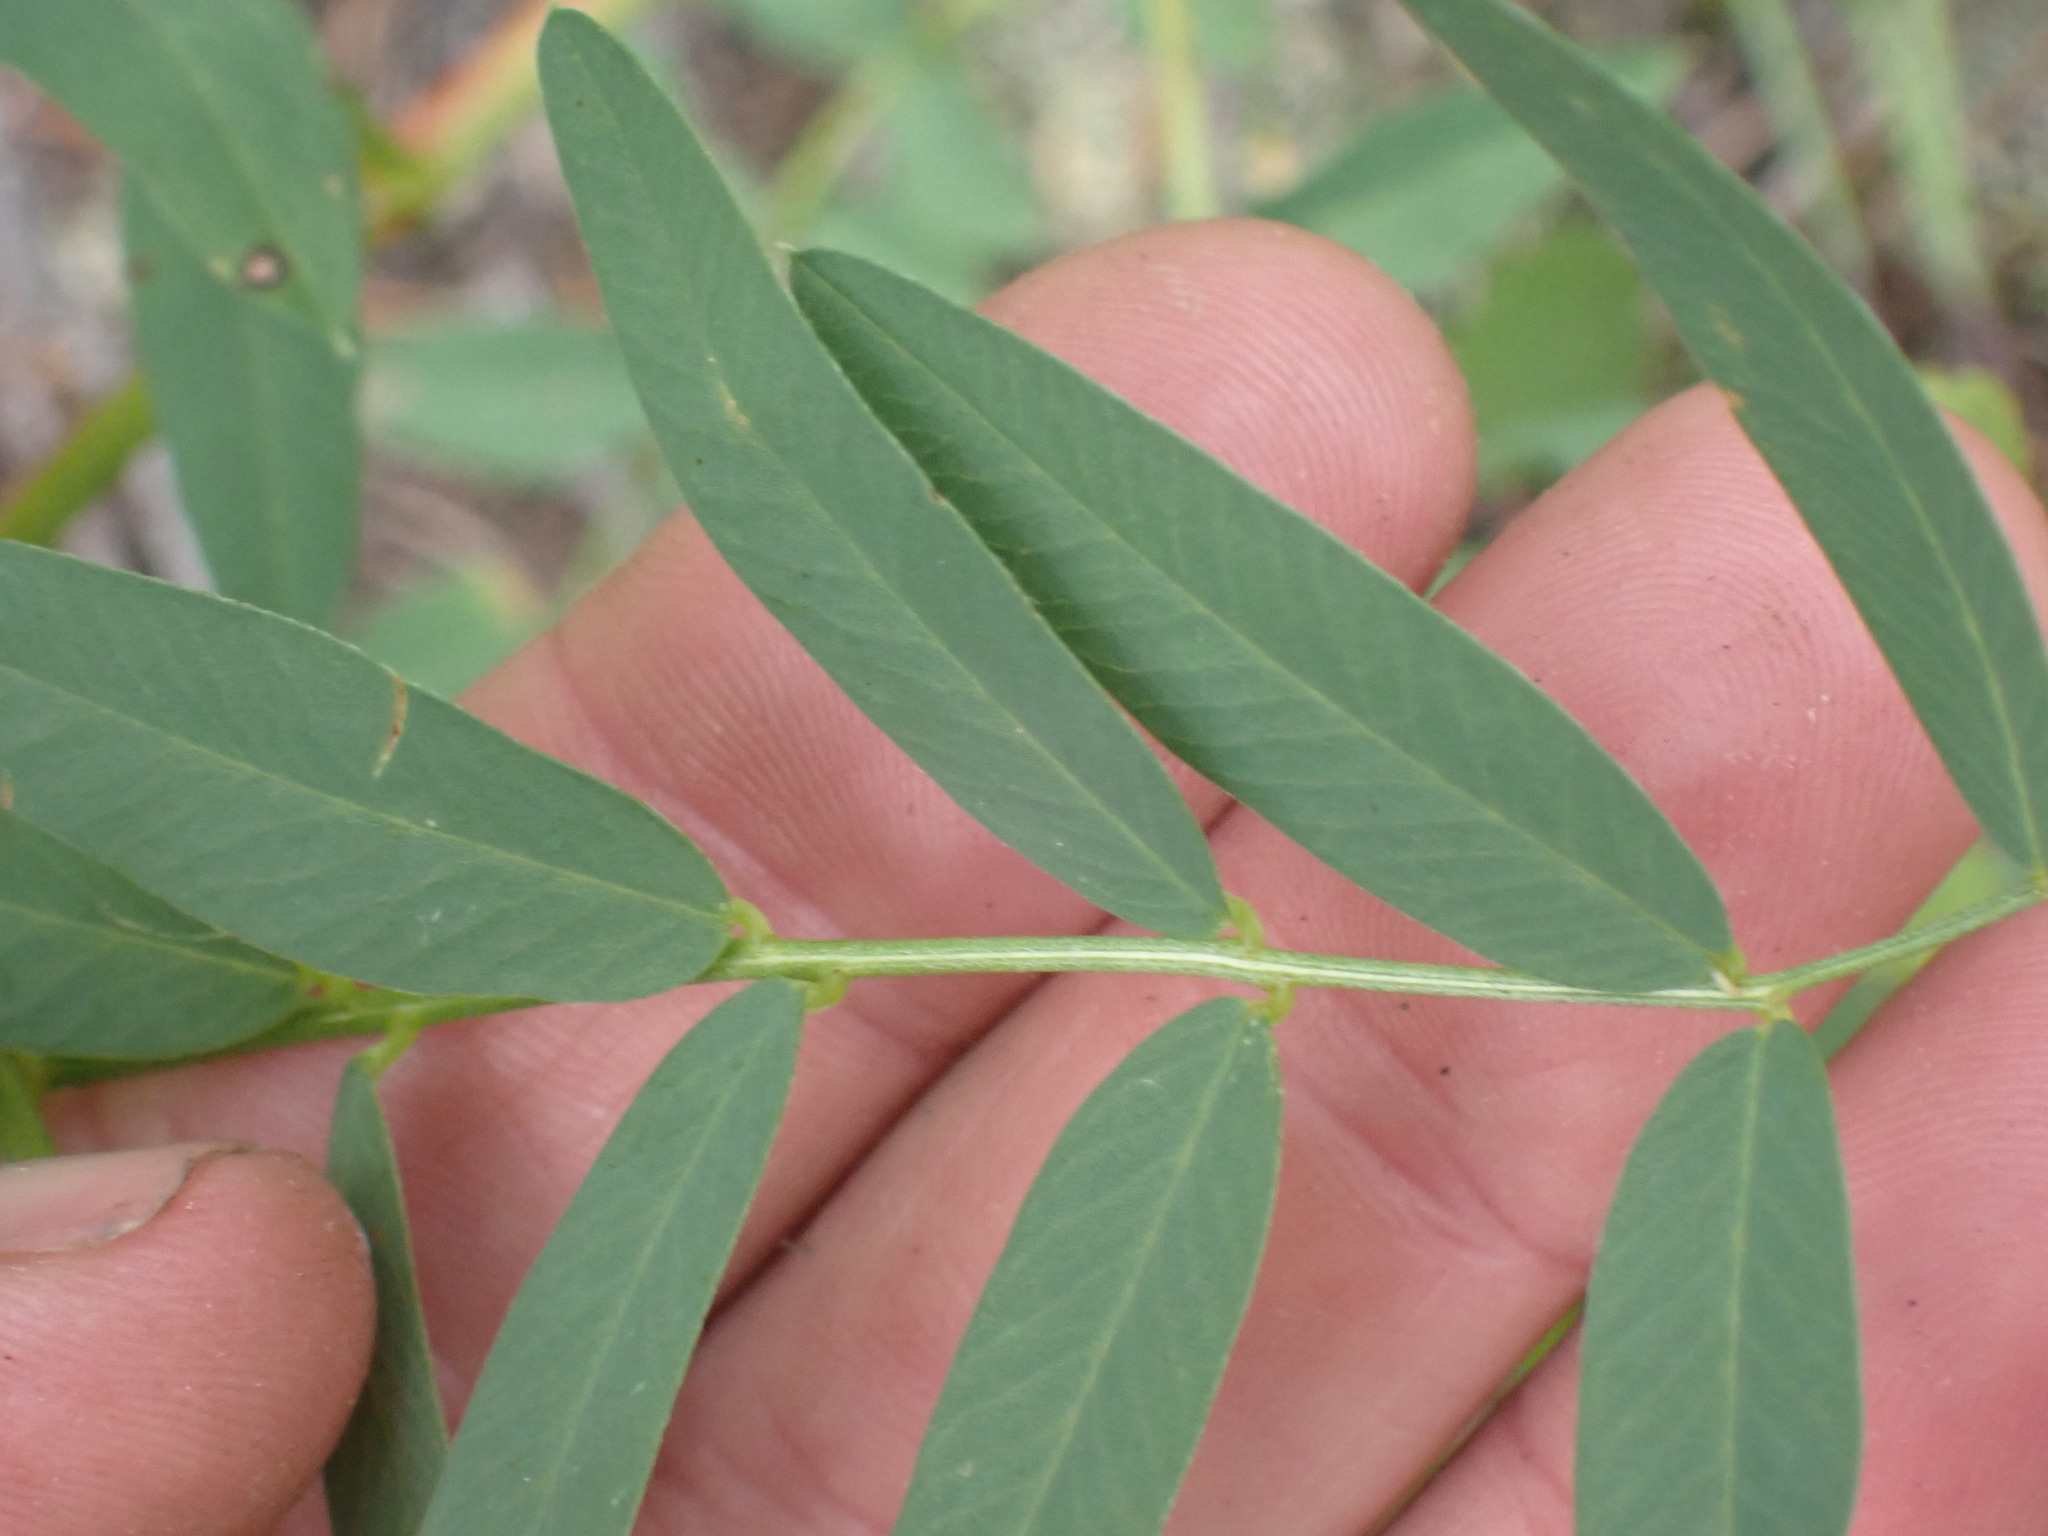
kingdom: Plantae
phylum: Tracheophyta
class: Magnoliopsida
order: Fabales
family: Fabaceae
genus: Hedysarum
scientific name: Hedysarum sulphurescens
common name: Sulphur hedysarum
